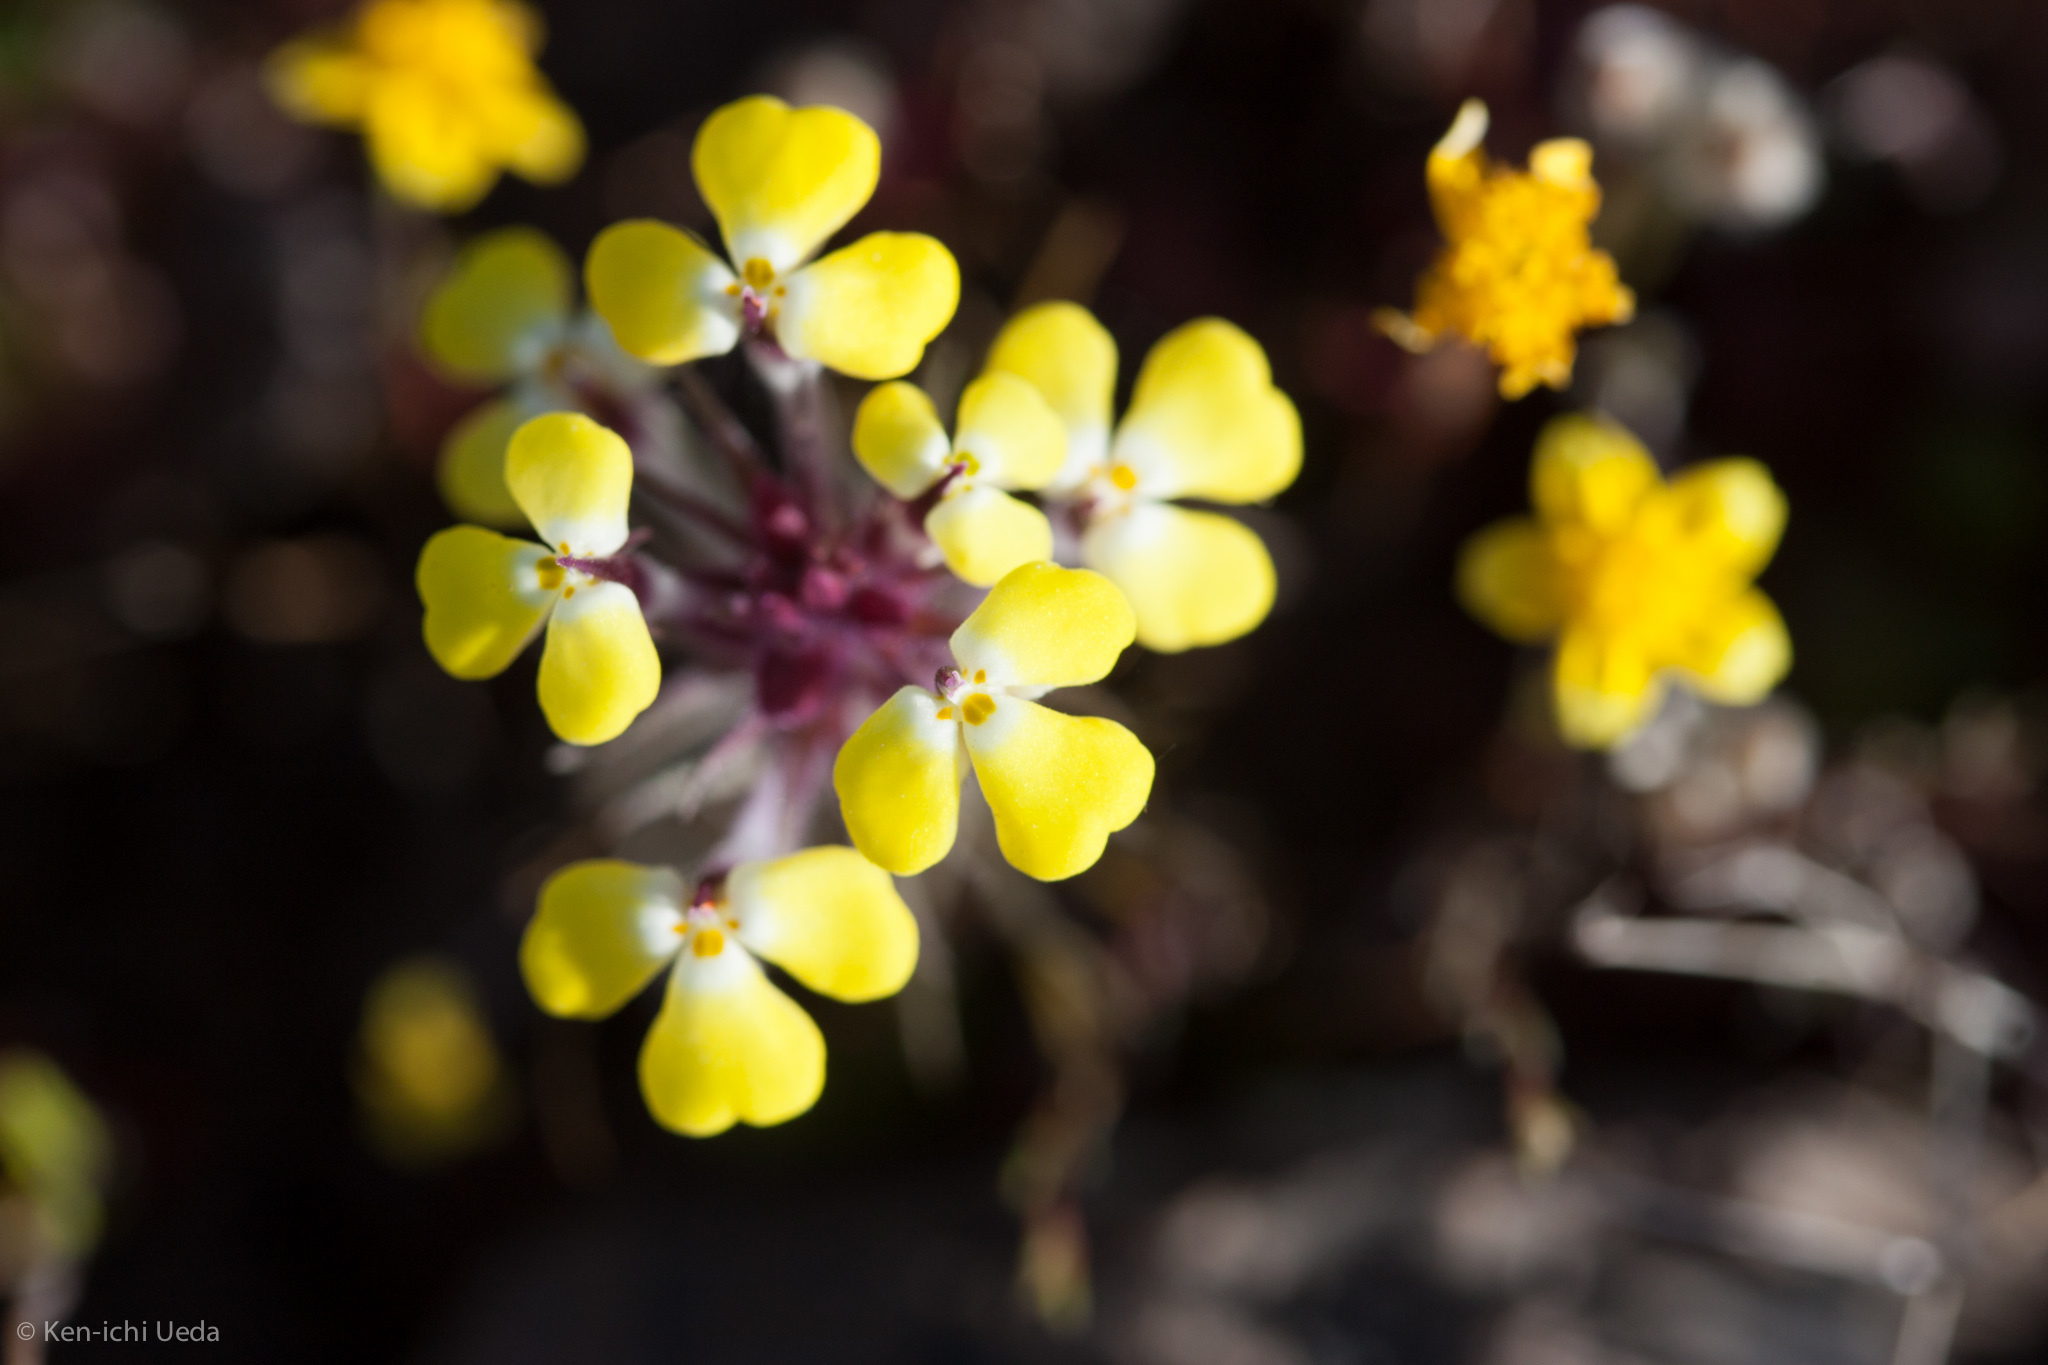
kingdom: Plantae
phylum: Tracheophyta
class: Magnoliopsida
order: Lamiales
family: Orobanchaceae
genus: Triphysaria
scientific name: Triphysaria eriantha
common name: Johnny-tuck
